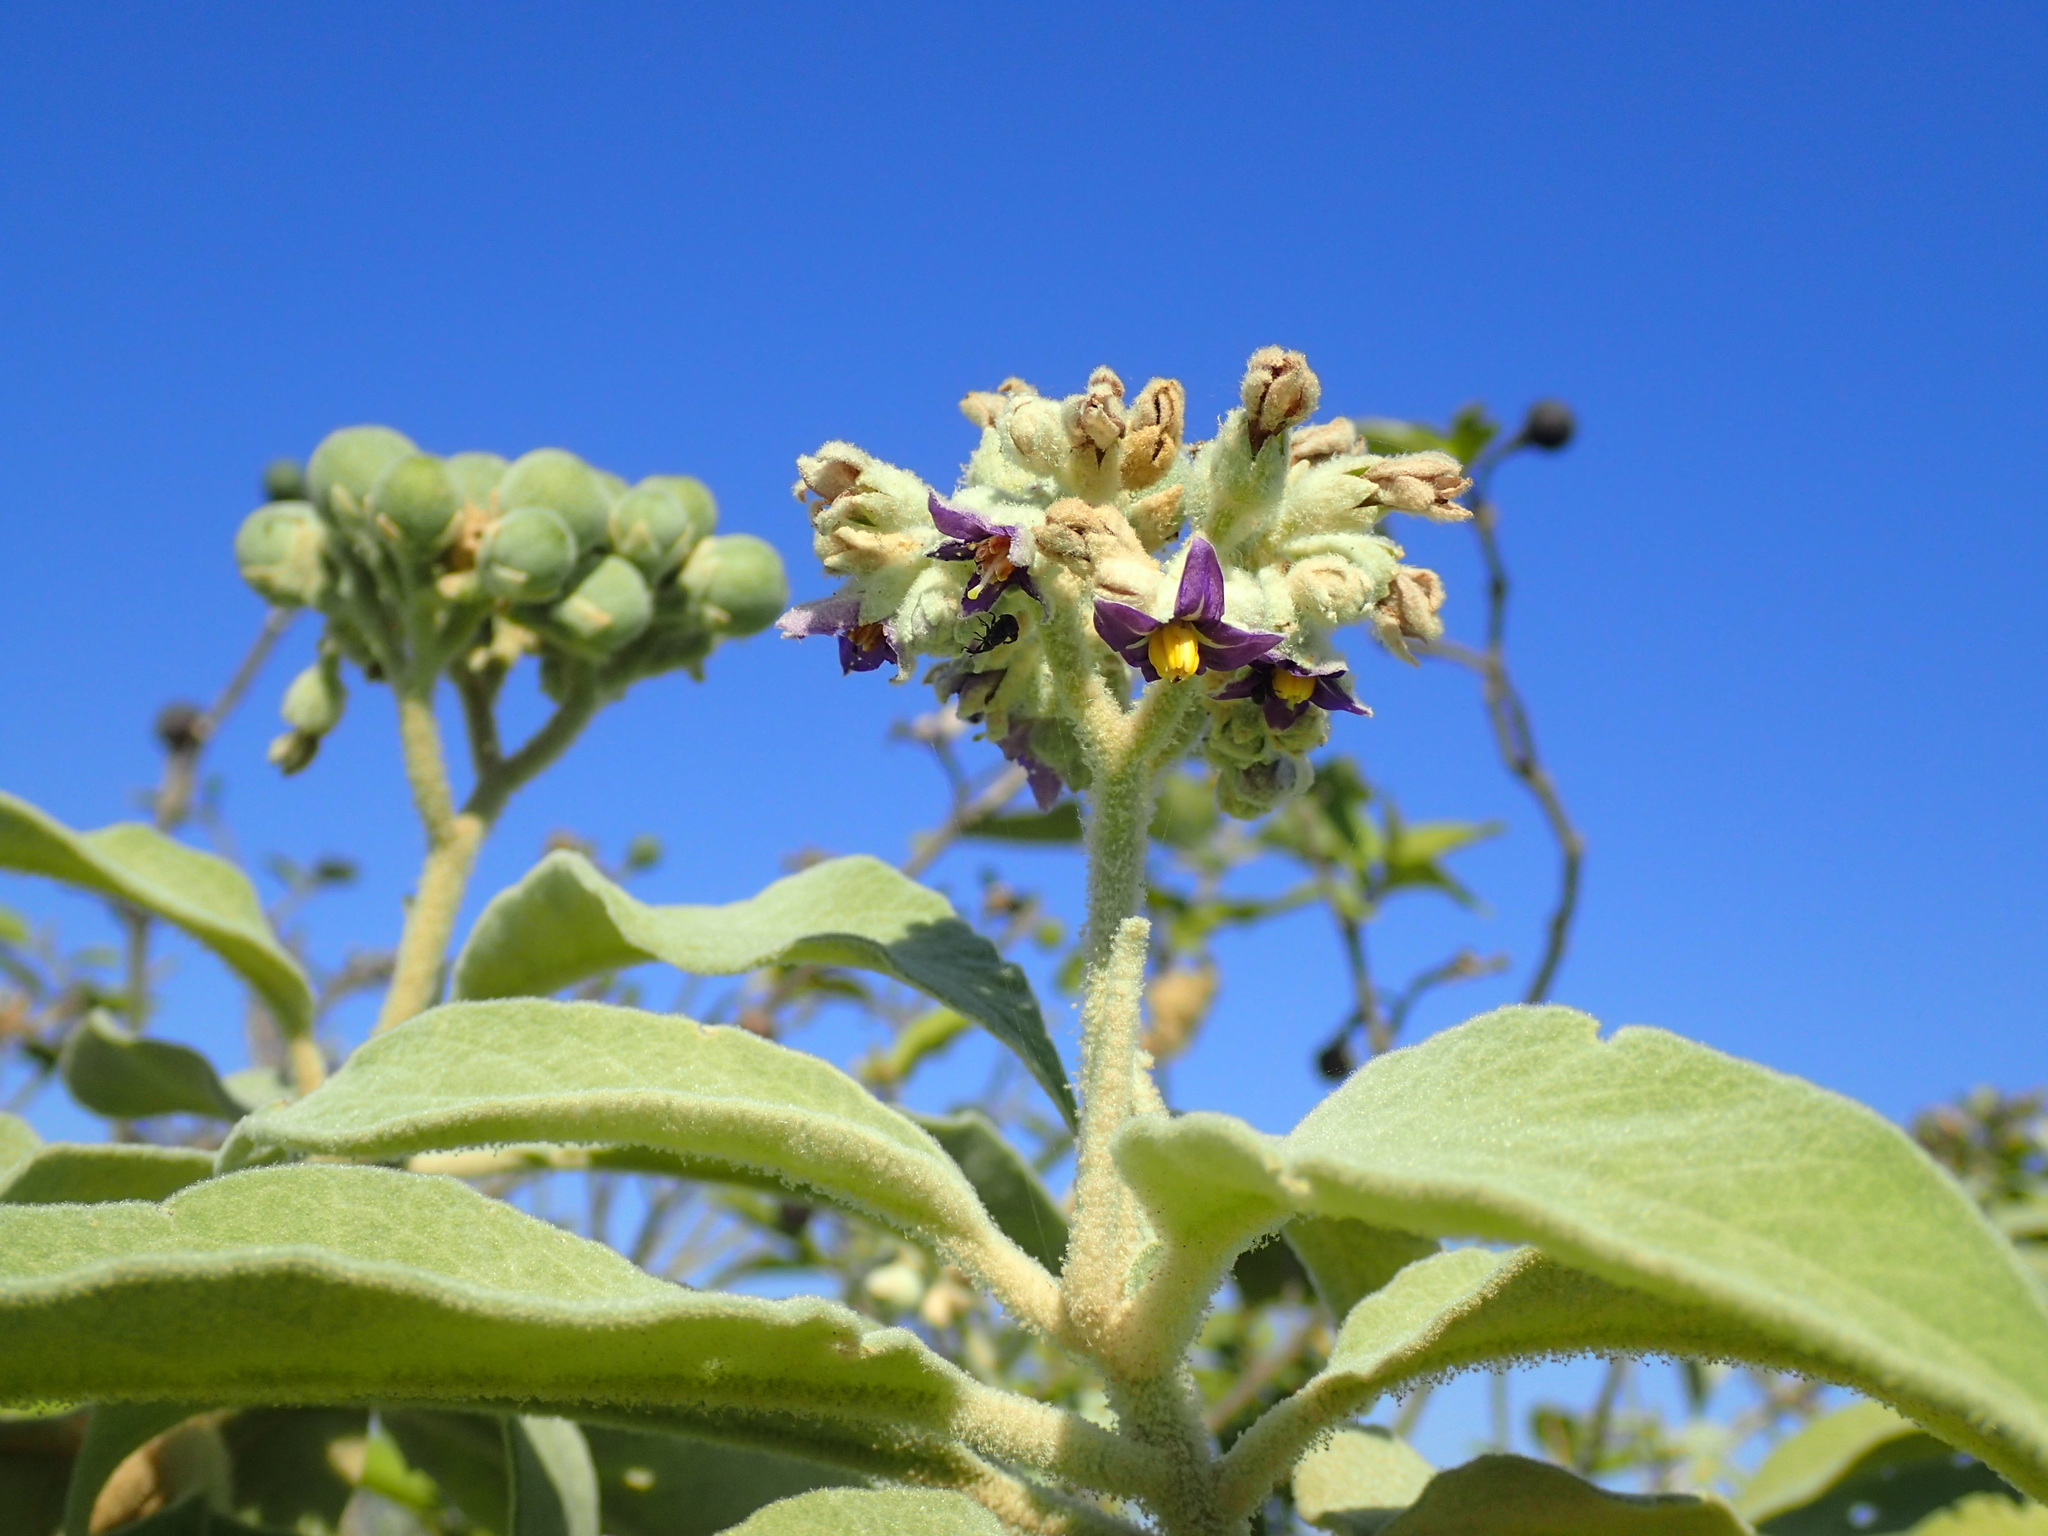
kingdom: Plantae
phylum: Tracheophyta
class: Magnoliopsida
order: Solanales
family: Solanaceae
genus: Solanum
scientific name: Solanum mauritianum
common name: Earleaf nightshade
